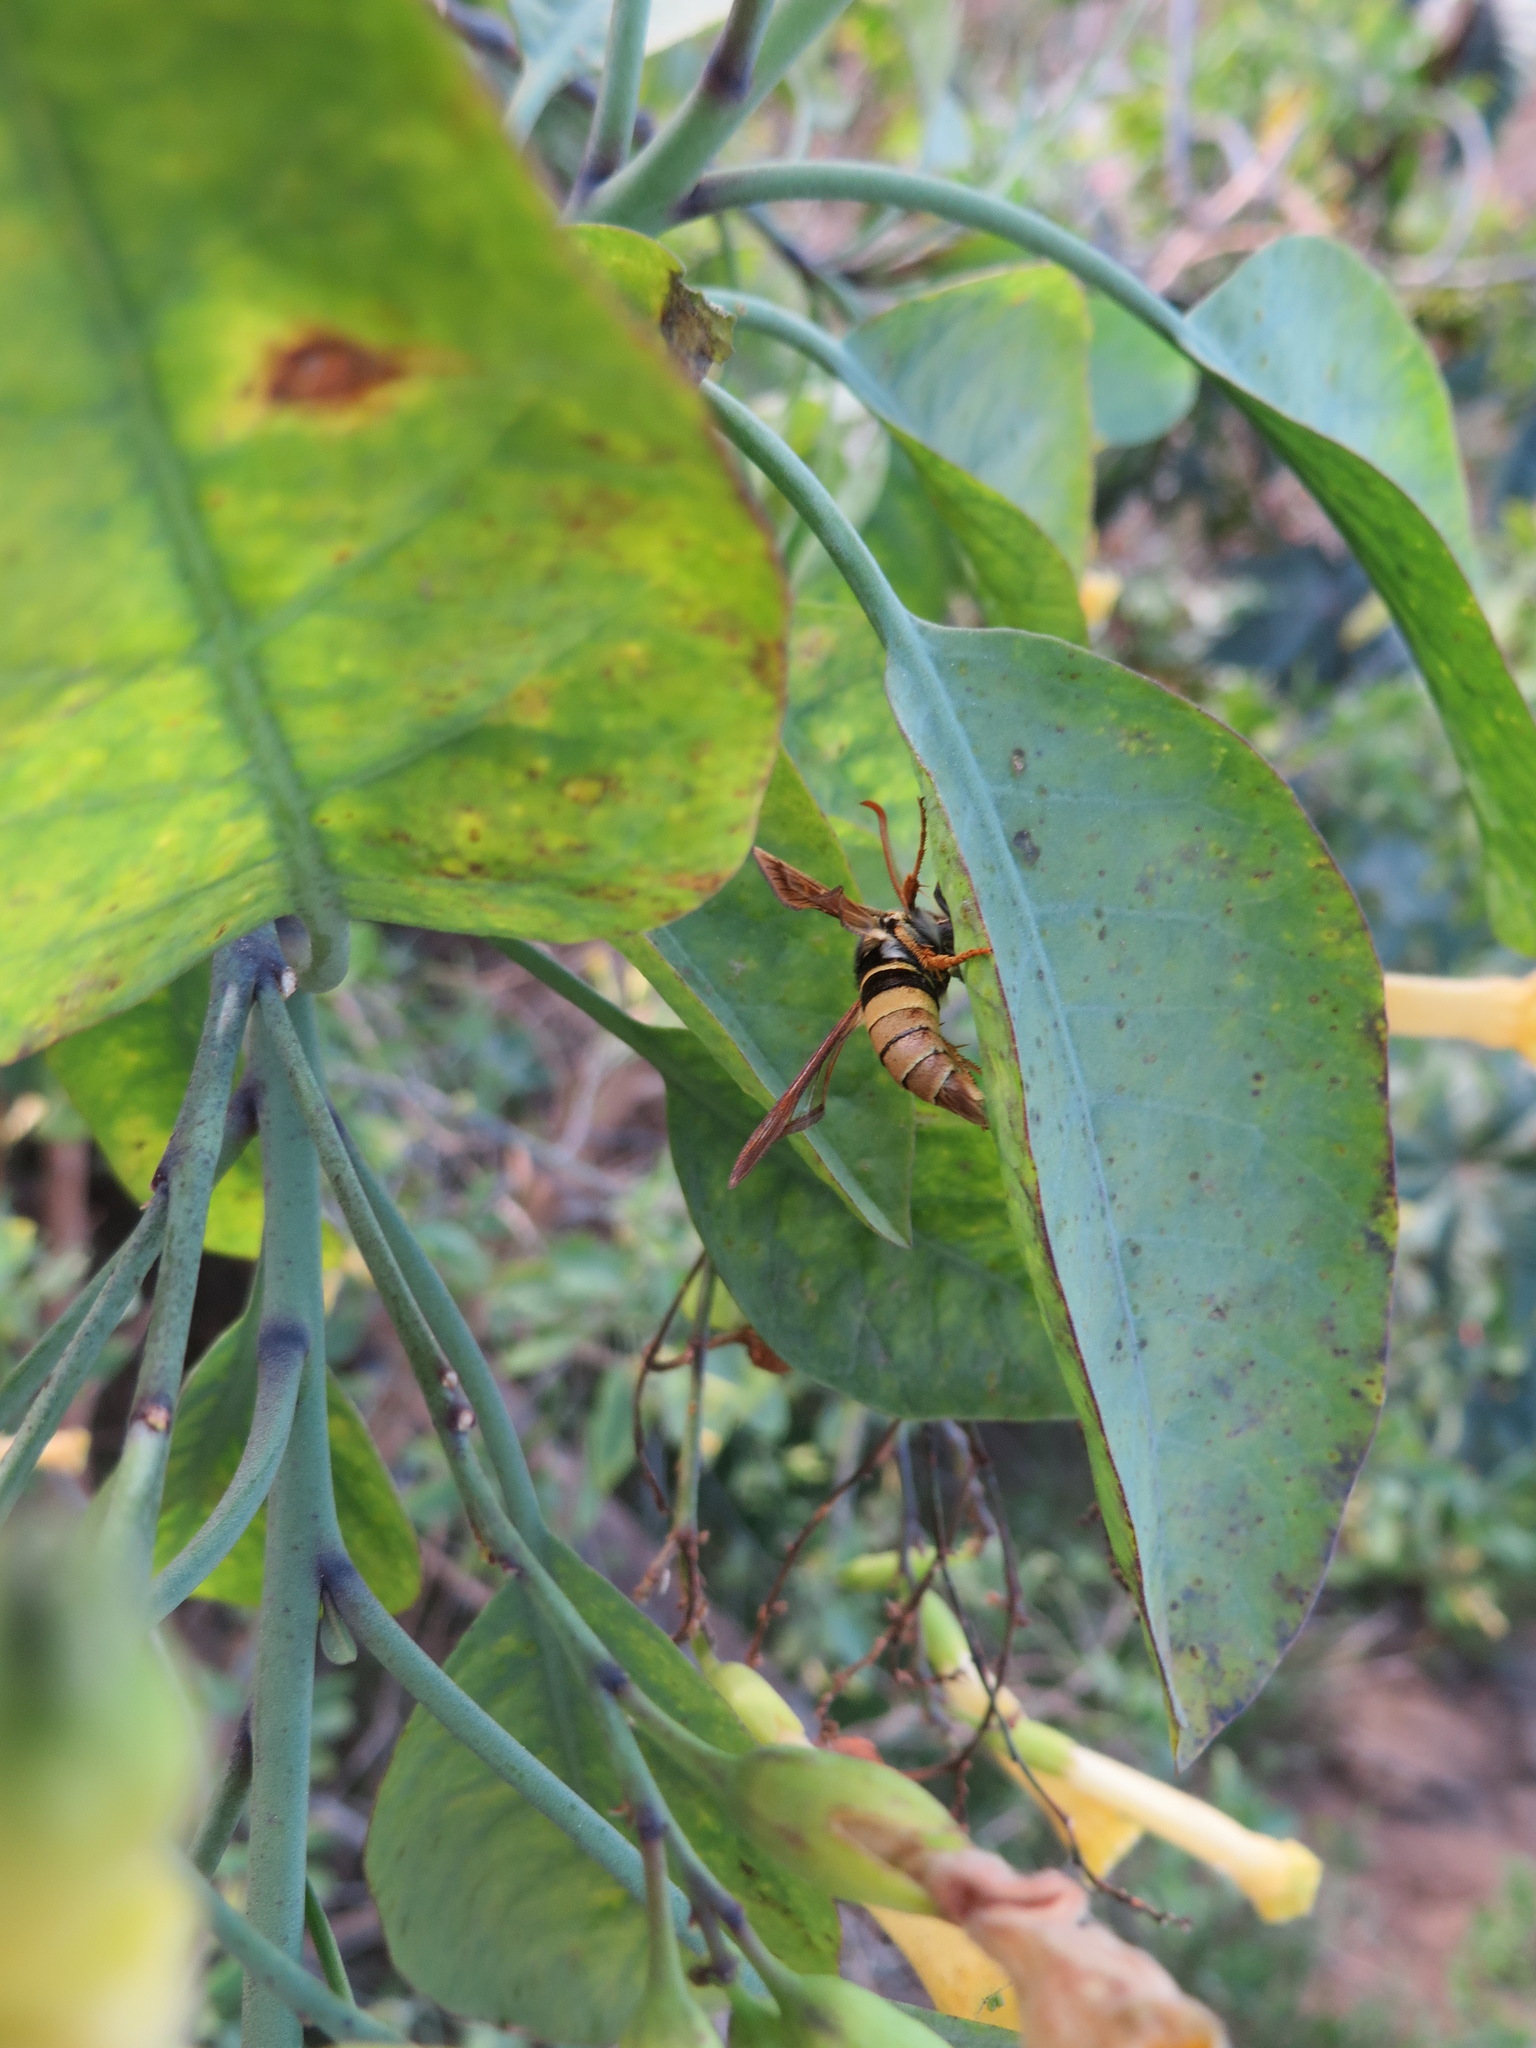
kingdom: Animalia
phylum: Arthropoda
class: Insecta
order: Lepidoptera
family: Sesiidae
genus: Paranthrene
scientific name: Paranthrene robiniae
